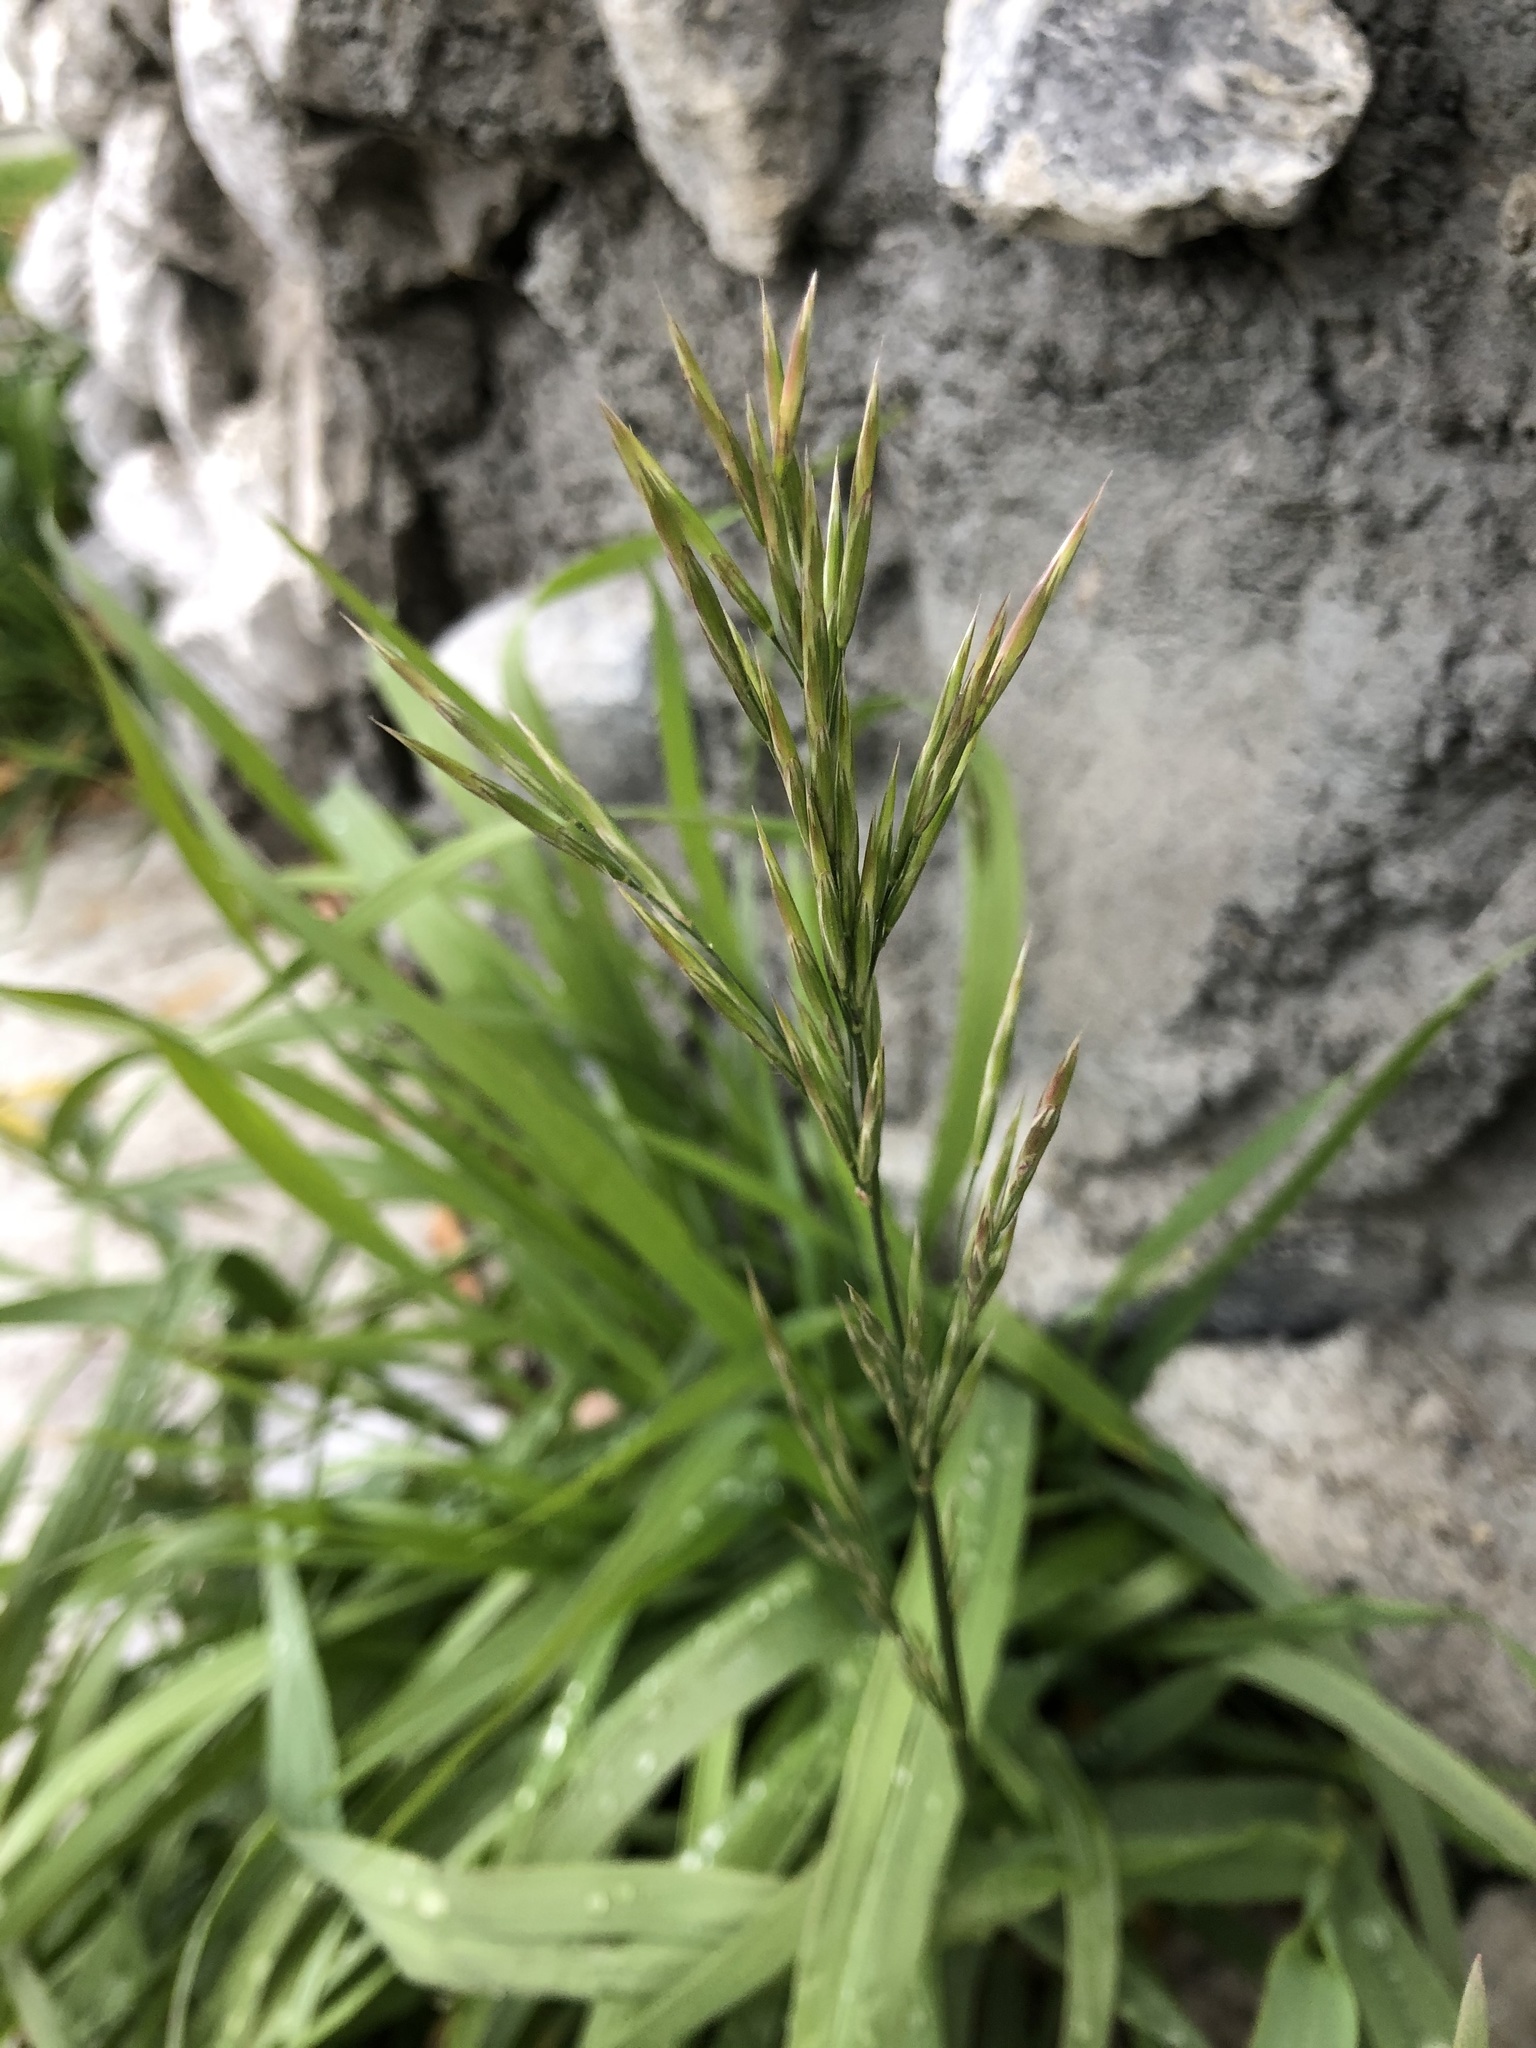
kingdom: Plantae
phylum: Tracheophyta
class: Liliopsida
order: Poales
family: Poaceae
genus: Bromus
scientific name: Bromus inermis
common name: Smooth brome
